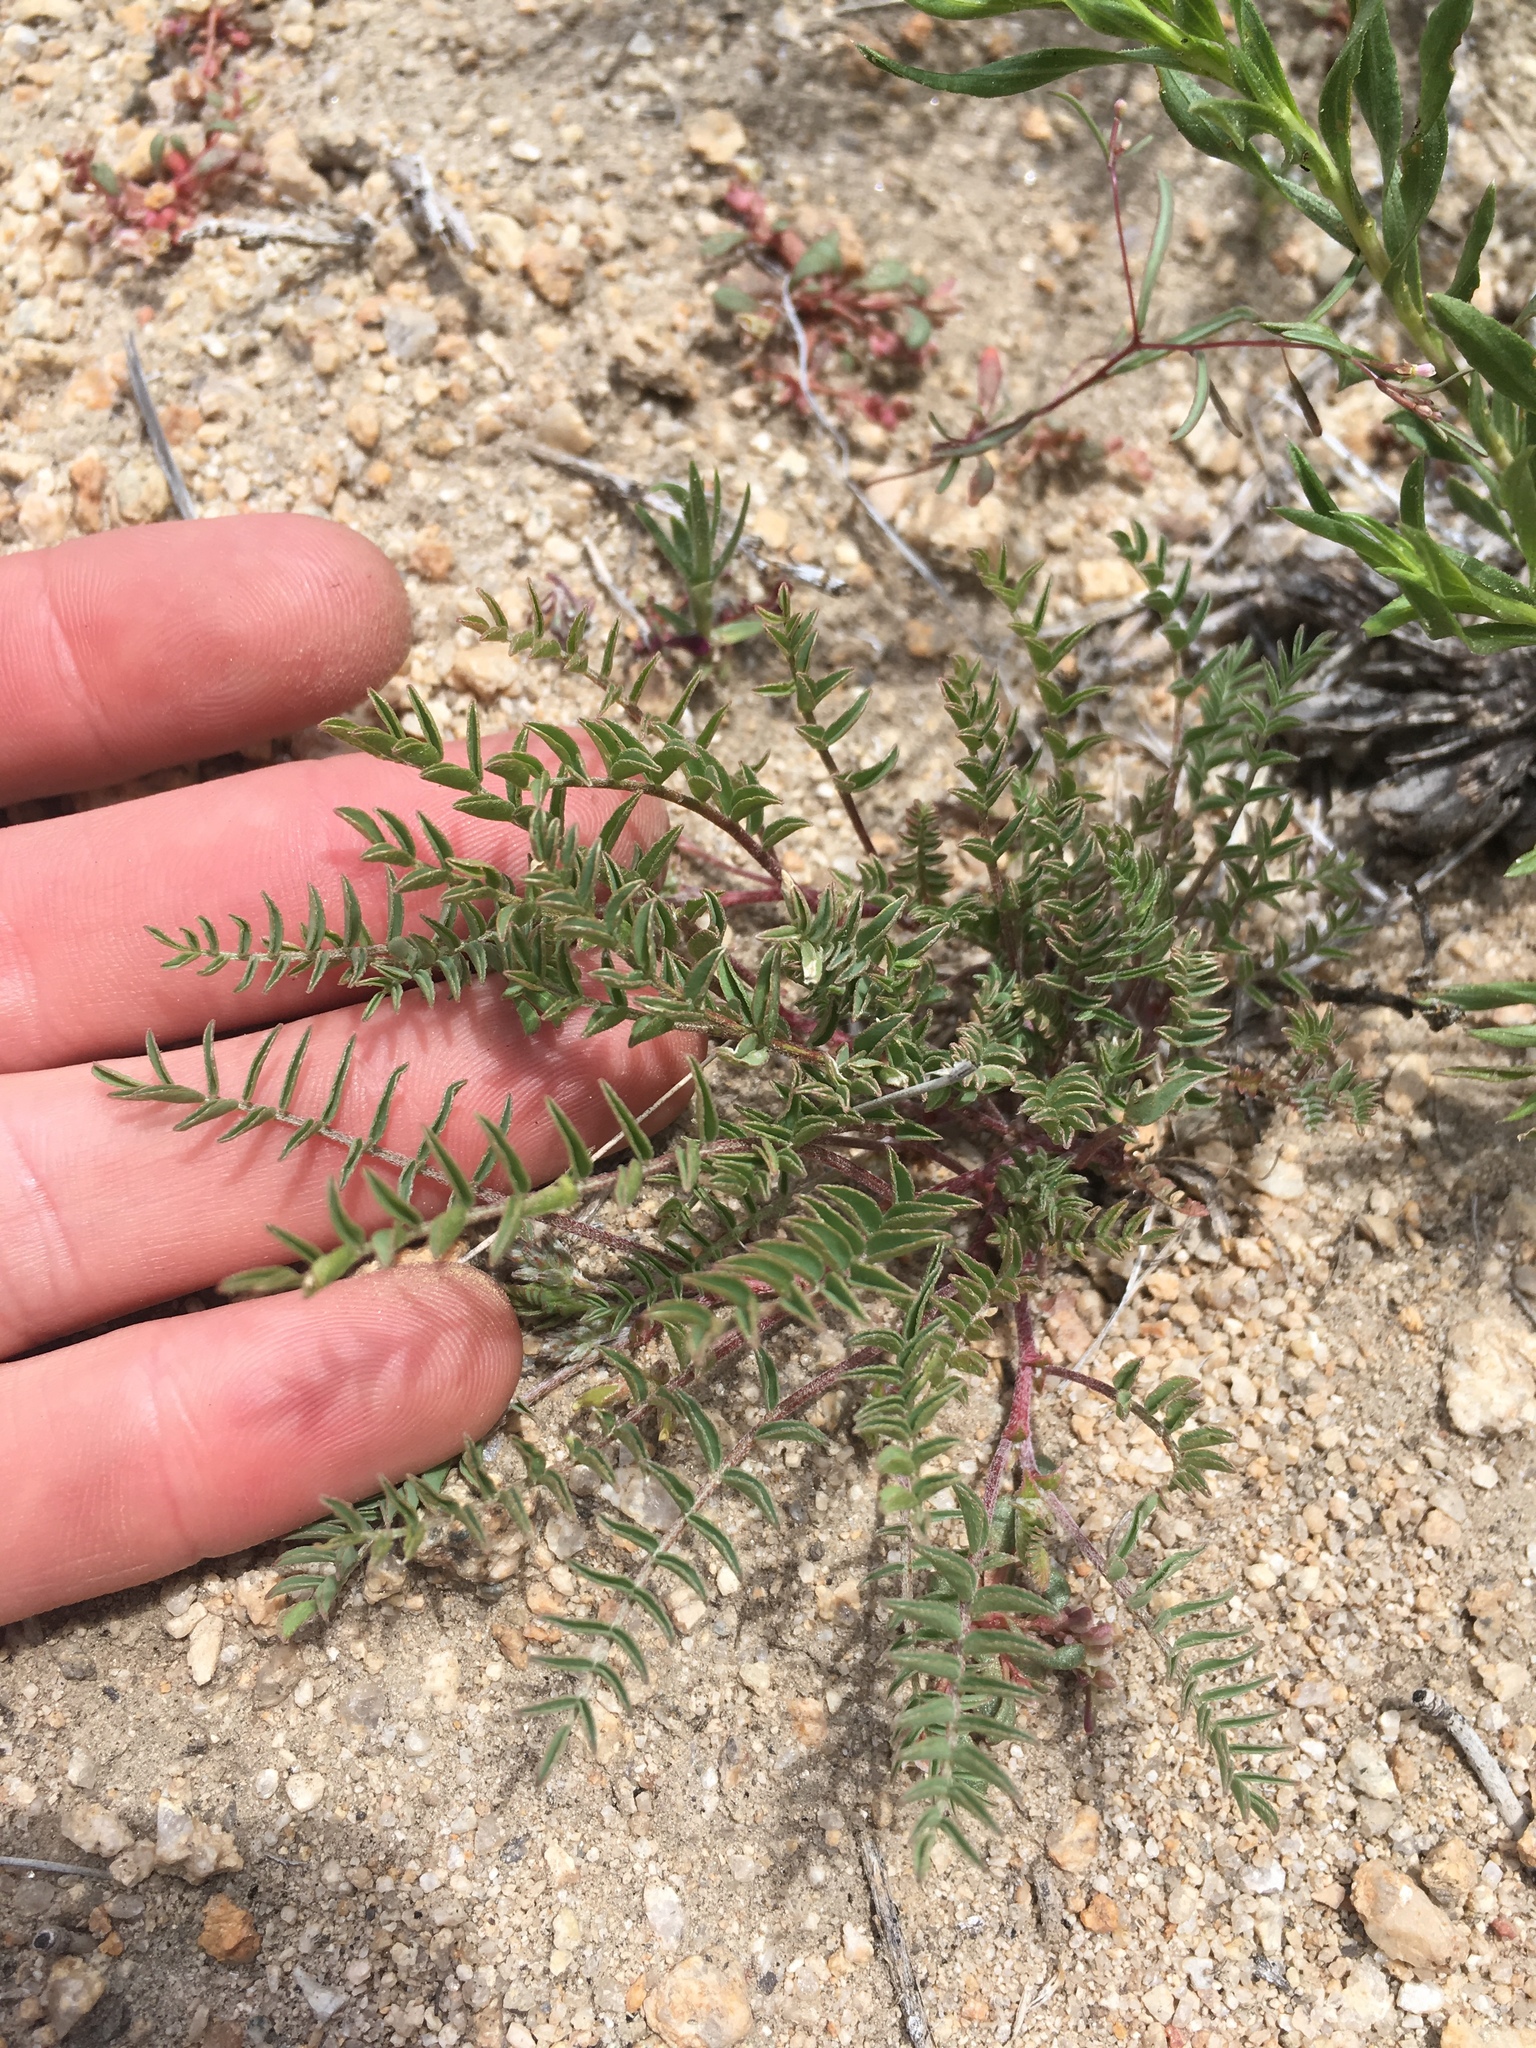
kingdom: Plantae
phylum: Tracheophyta
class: Magnoliopsida
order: Fabales
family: Fabaceae
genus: Astragalus
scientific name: Astragalus lentiginosus
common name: Freckled milkvetch
